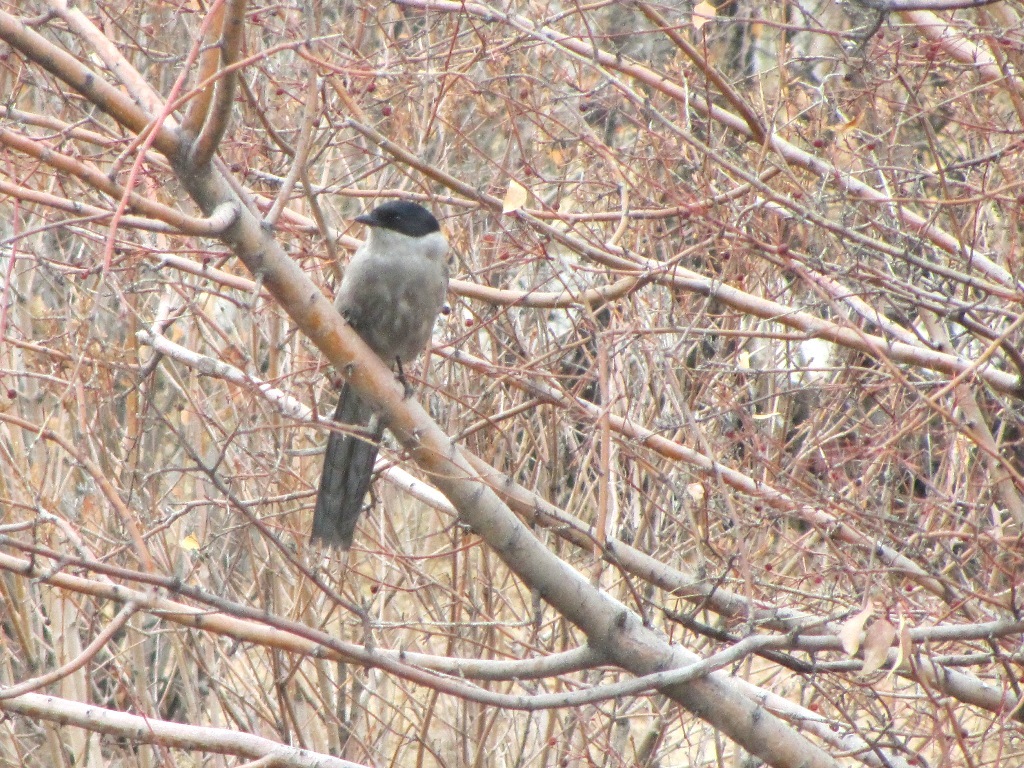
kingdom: Animalia
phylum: Chordata
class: Aves
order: Passeriformes
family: Corvidae
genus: Cyanopica
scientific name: Cyanopica cyanus
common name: Azure-winged magpie
